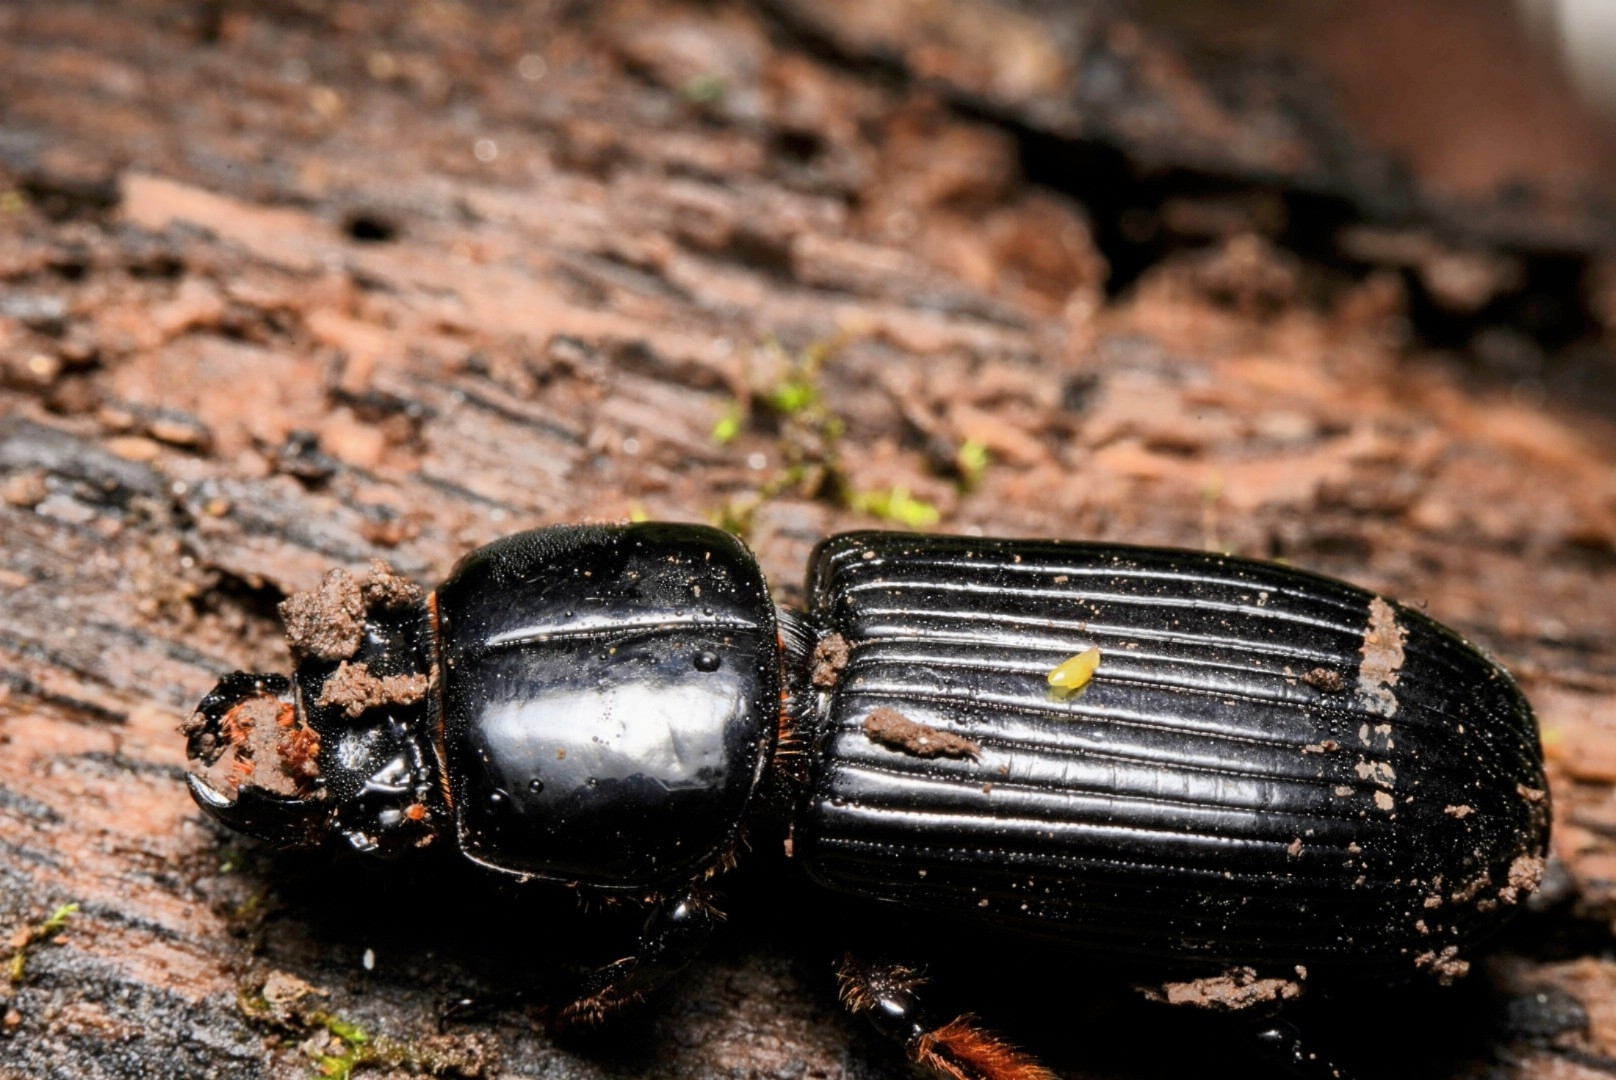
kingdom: Animalia
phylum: Arthropoda
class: Insecta
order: Coleoptera
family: Passalidae
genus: Odontotaenius
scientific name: Odontotaenius disjunctus
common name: Patent leather beetle
